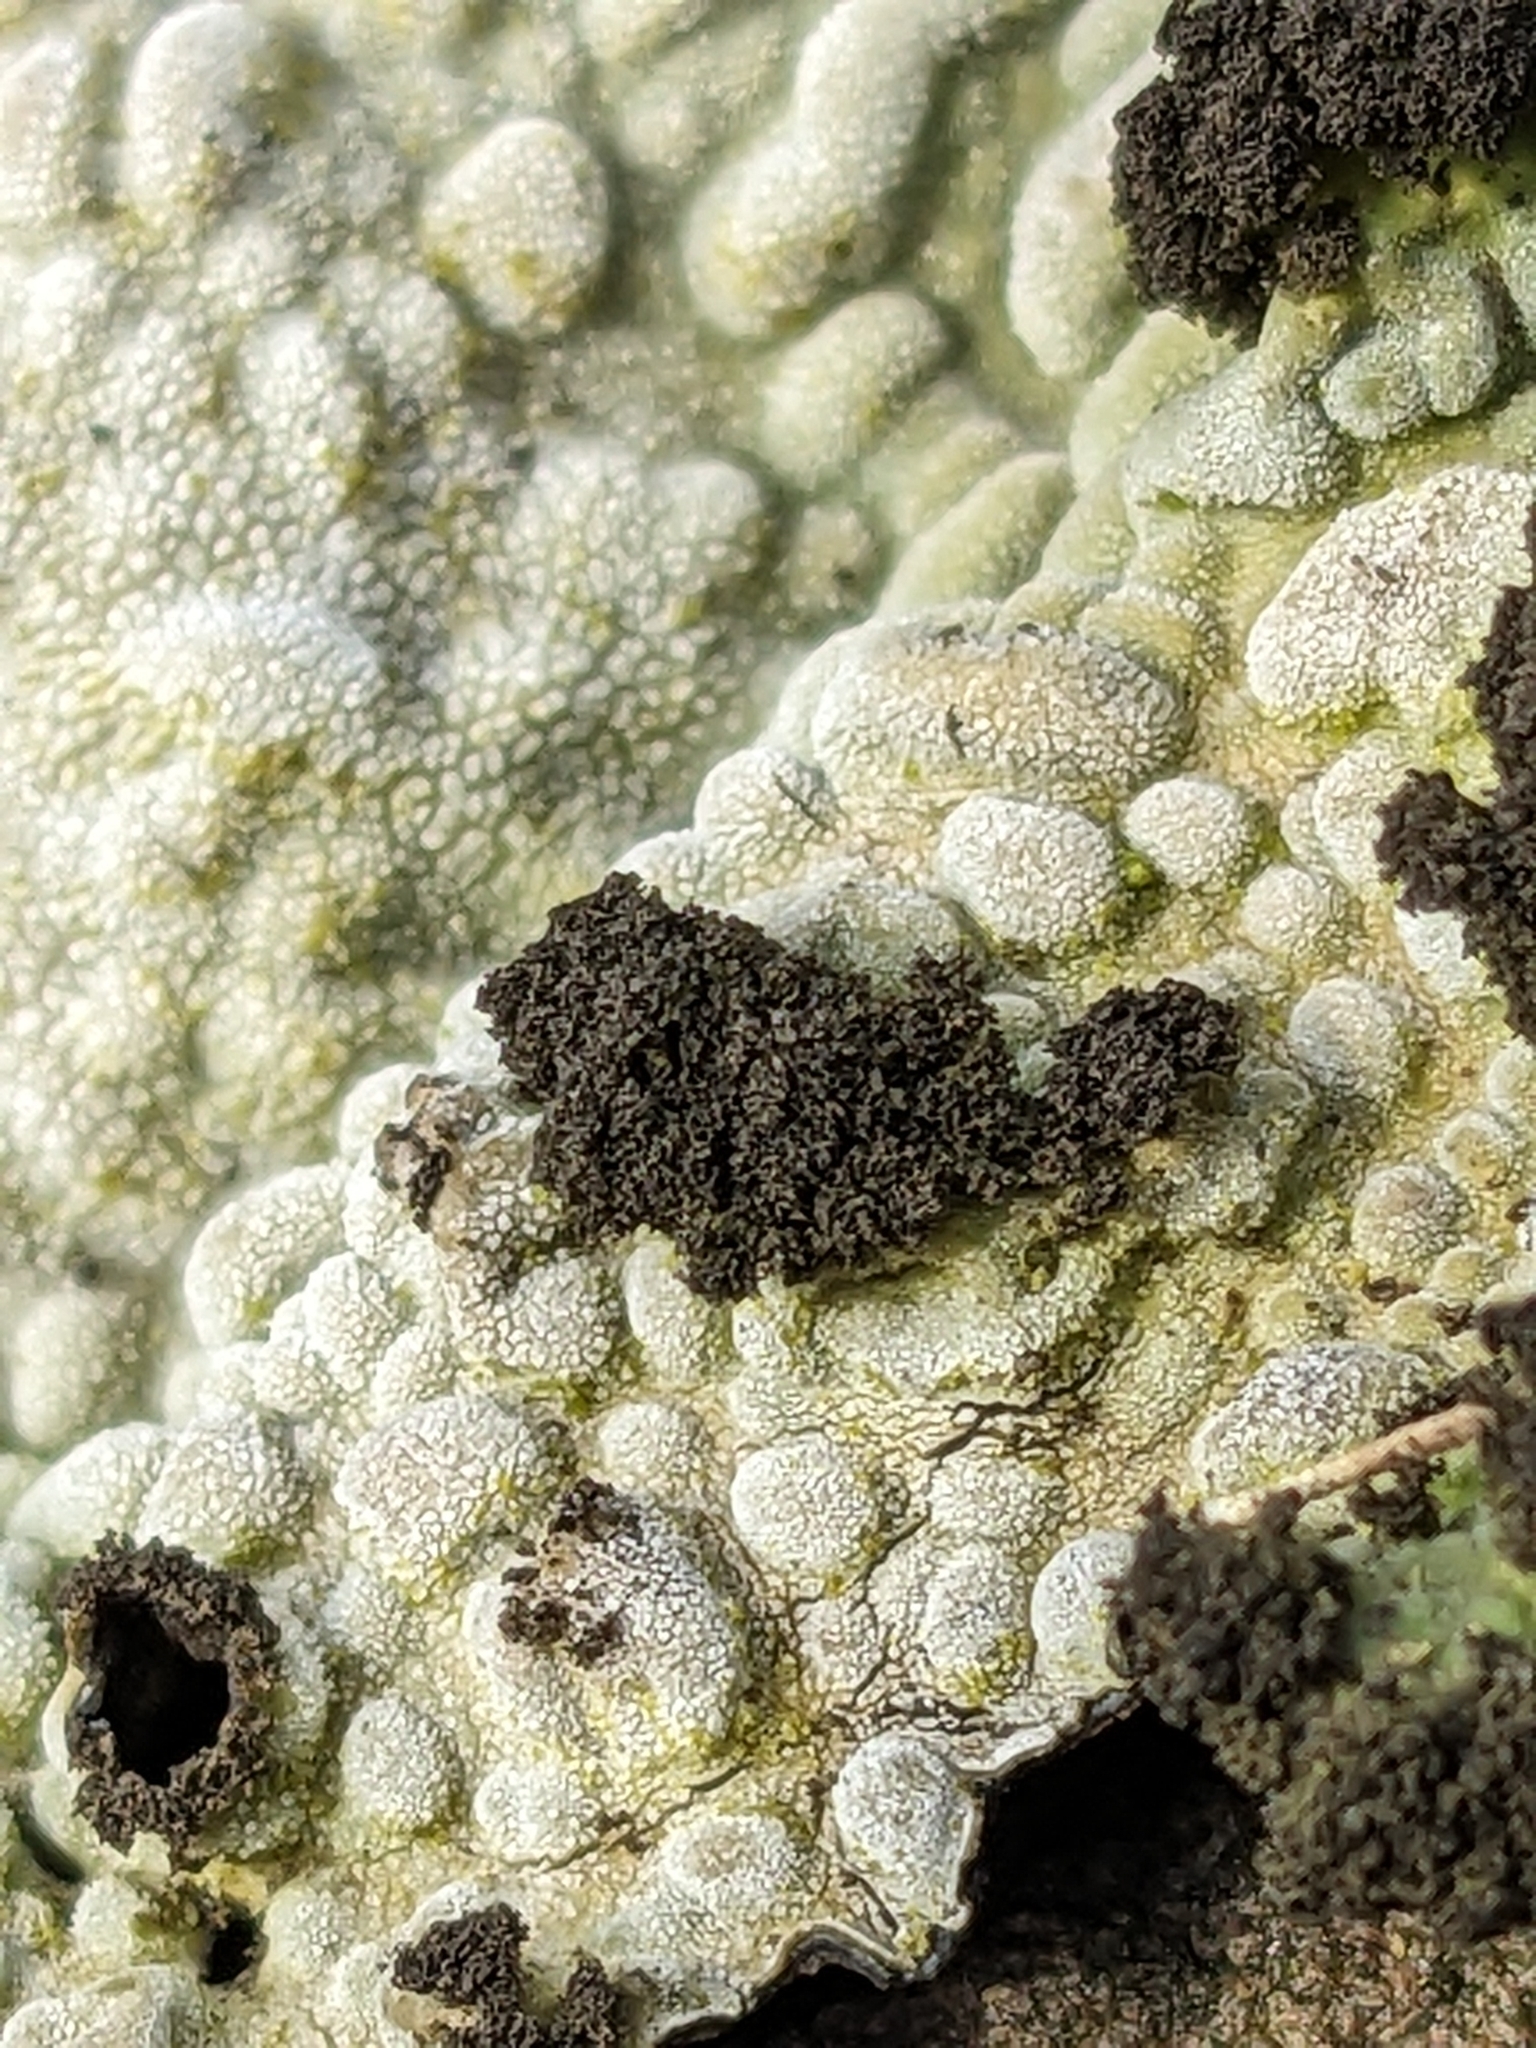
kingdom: Fungi
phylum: Ascomycota
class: Lecanoromycetes
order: Umbilicariales
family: Umbilicariaceae
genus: Lasallia
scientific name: Lasallia pustulata
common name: Blistered toadskin lichen
